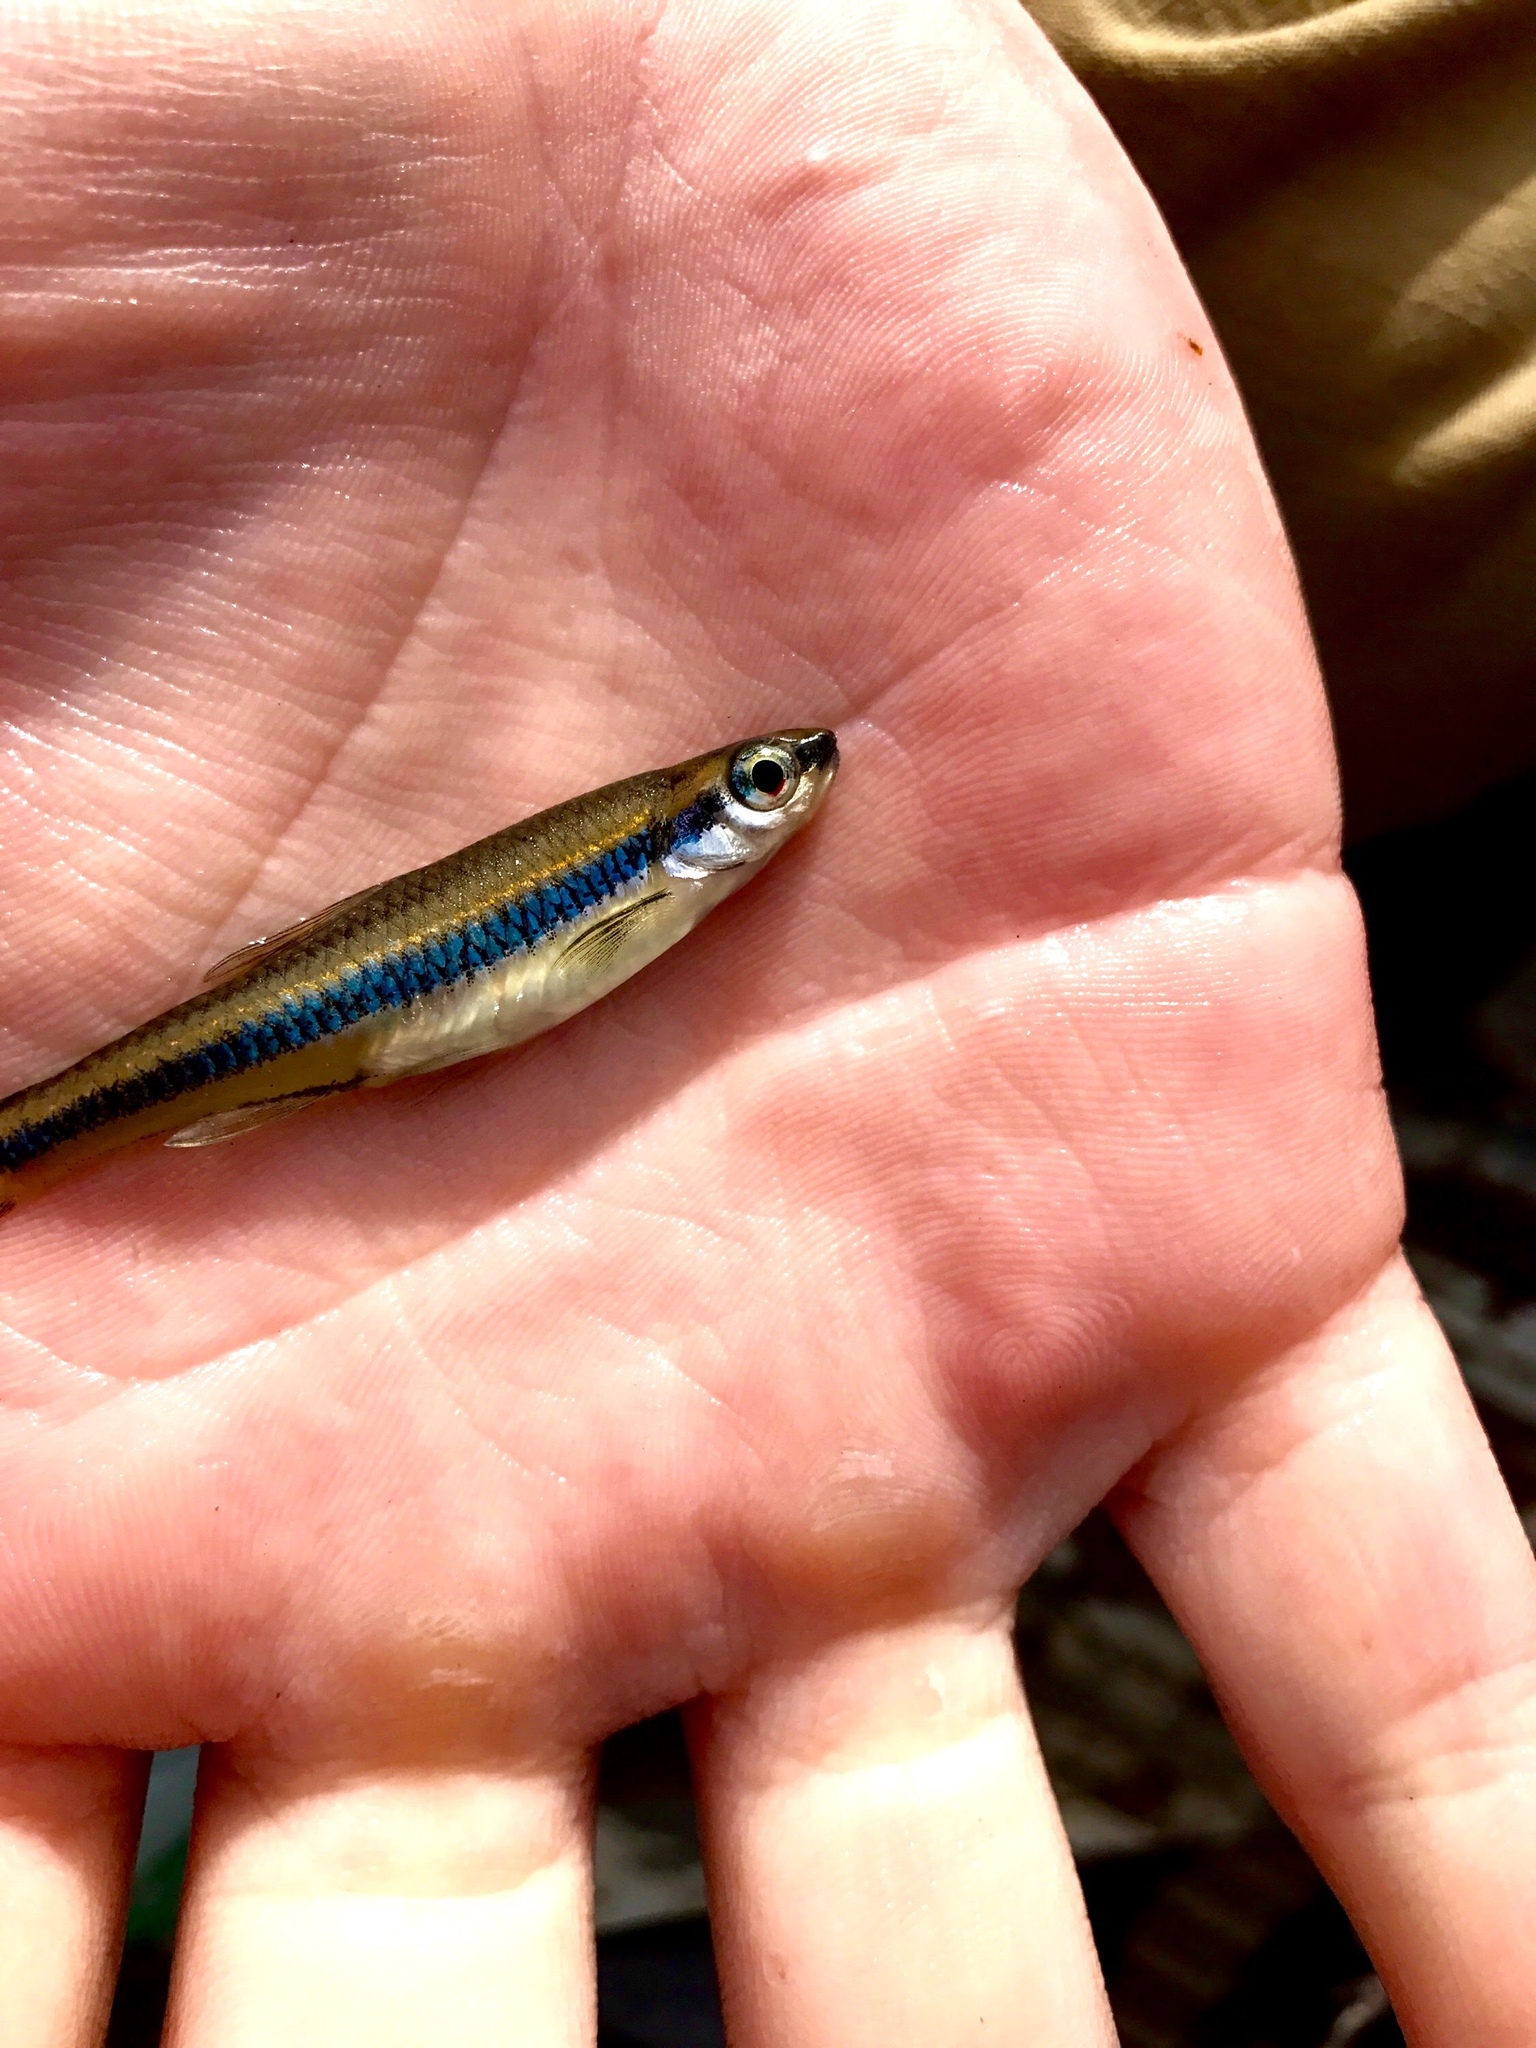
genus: Alburnops
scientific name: Alburnops
